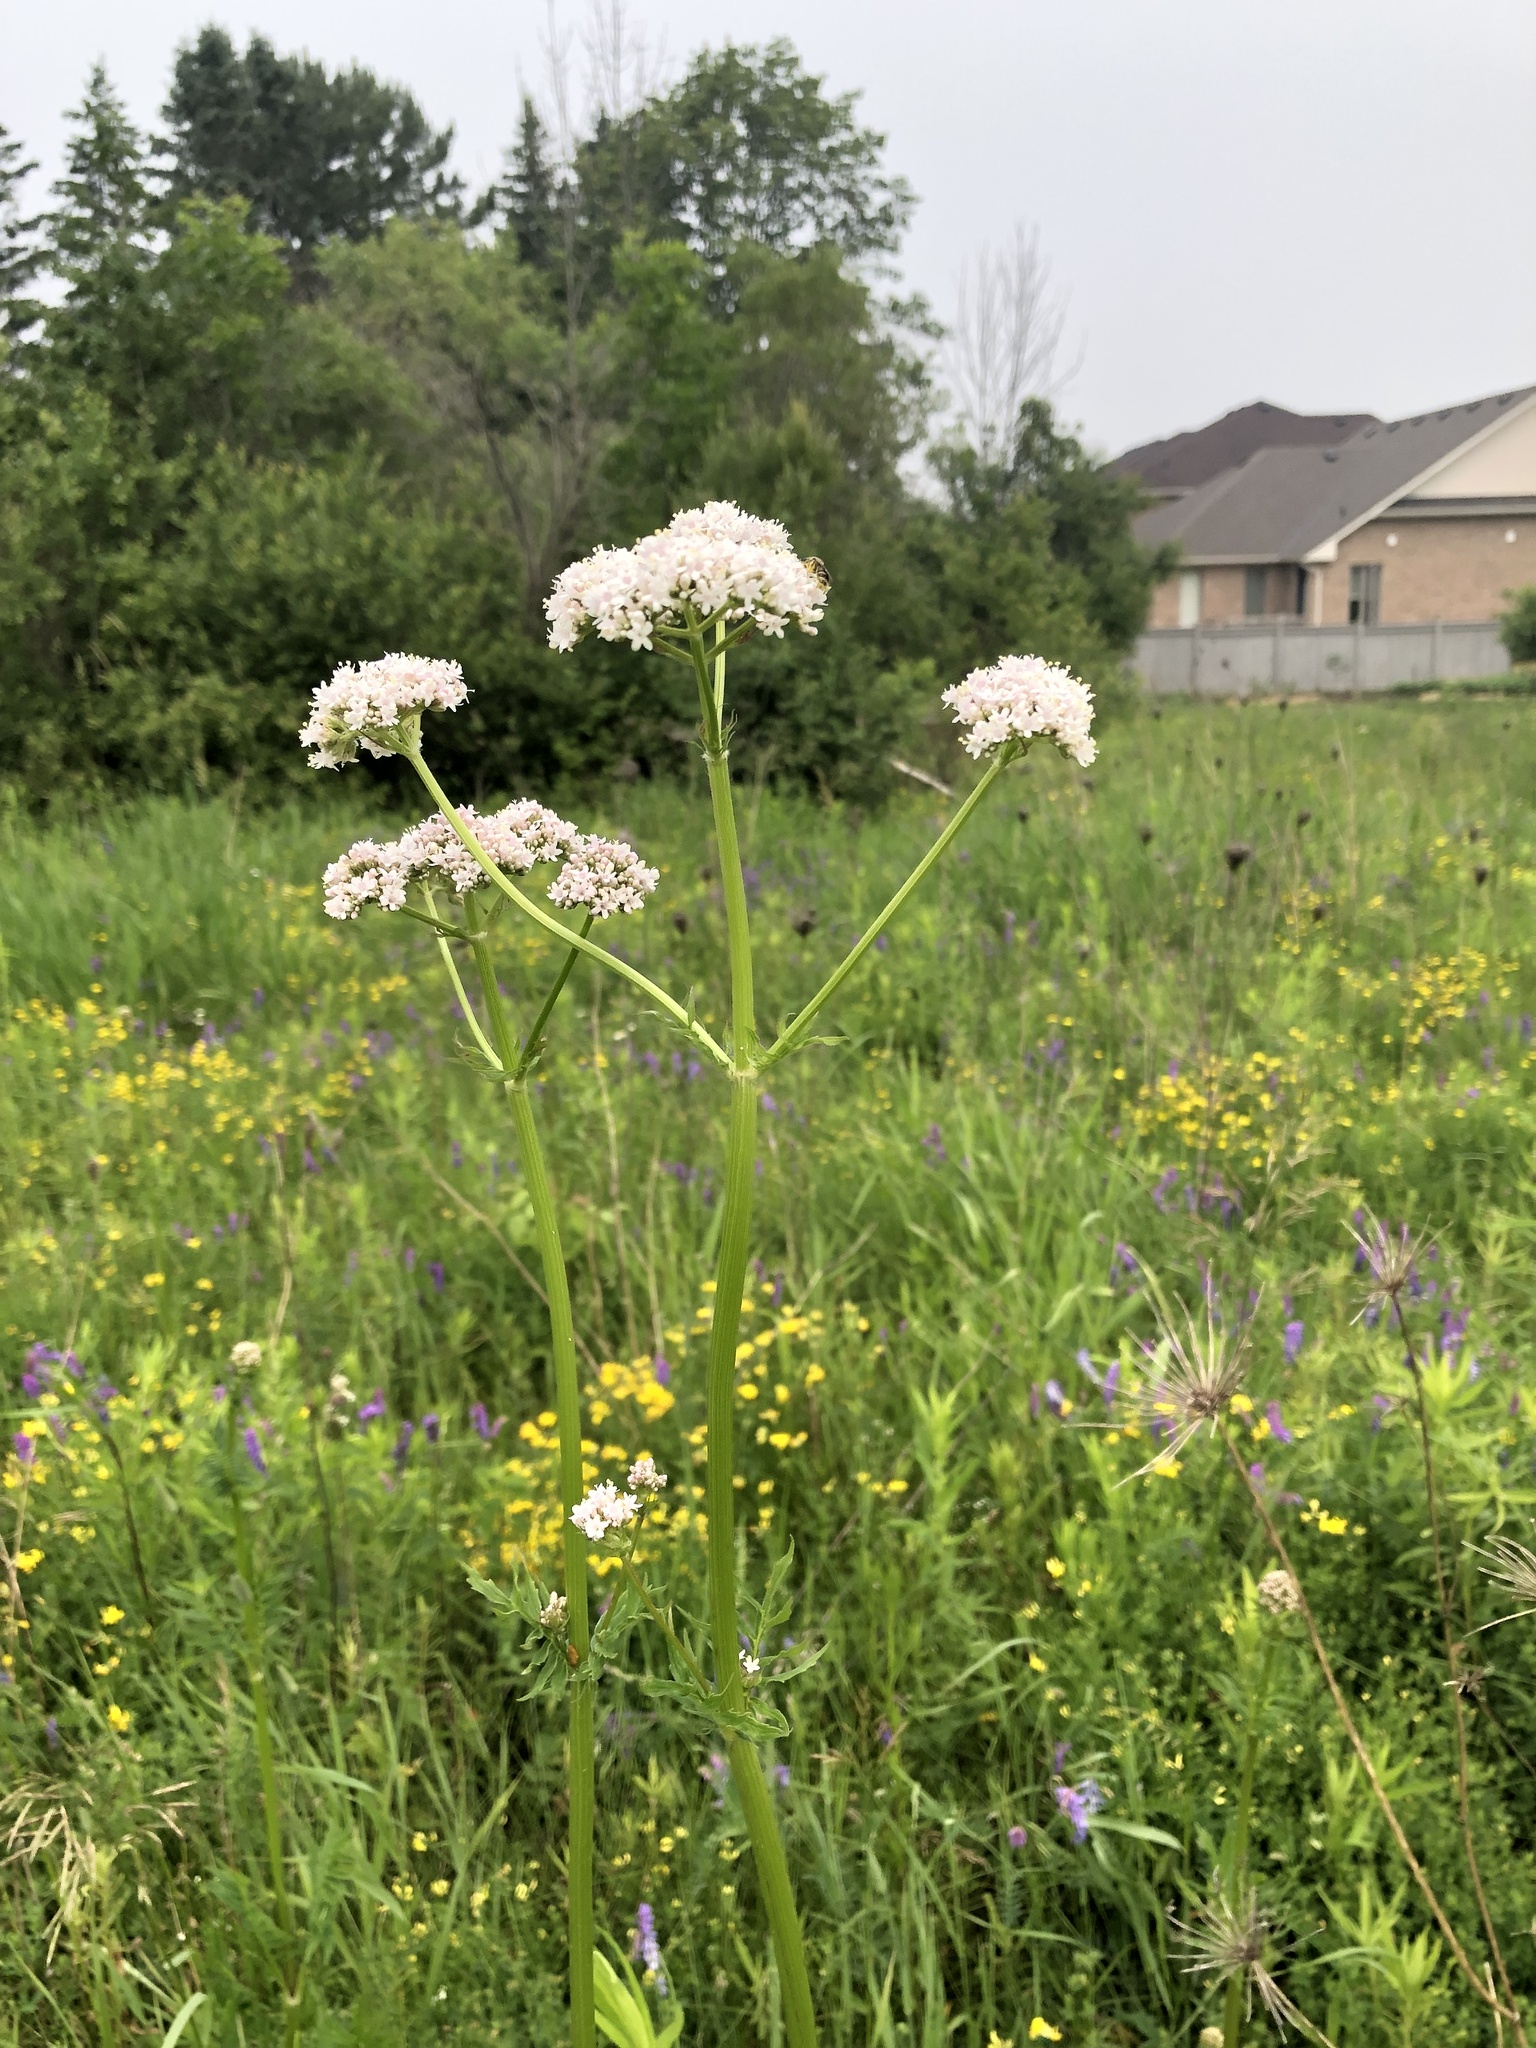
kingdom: Plantae
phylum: Tracheophyta
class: Magnoliopsida
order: Dipsacales
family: Caprifoliaceae
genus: Valeriana
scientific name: Valeriana officinalis
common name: Common valerian
